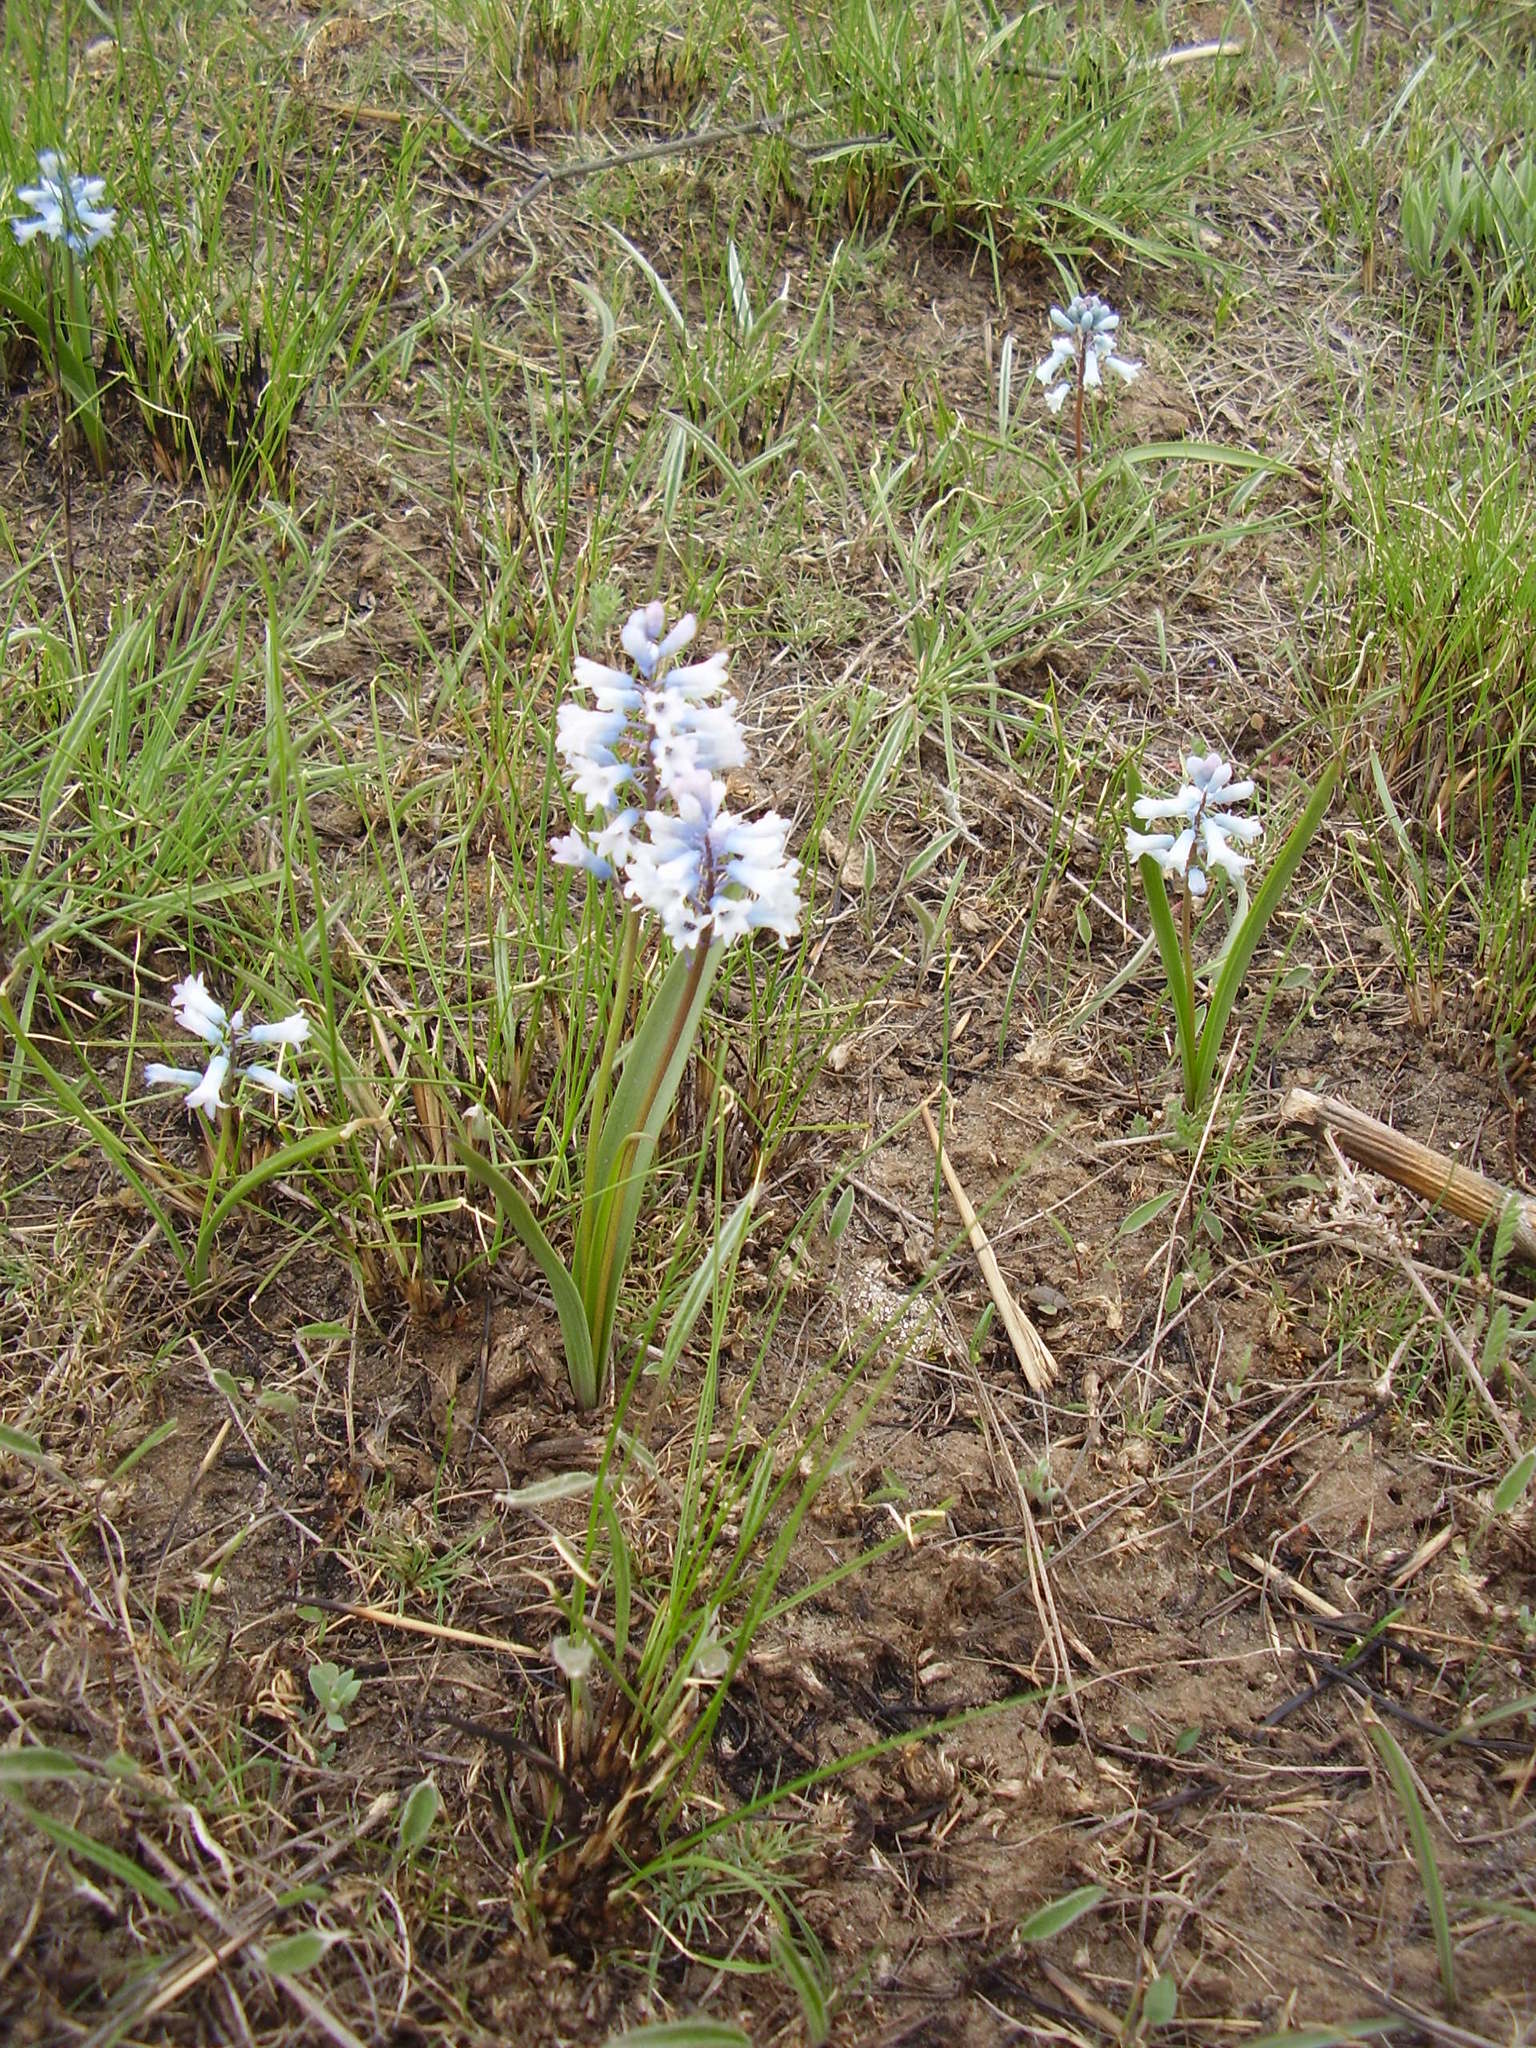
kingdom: Plantae
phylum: Tracheophyta
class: Liliopsida
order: Asparagales
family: Asparagaceae
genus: Hyacinthella
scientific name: Hyacinthella leucophaea
